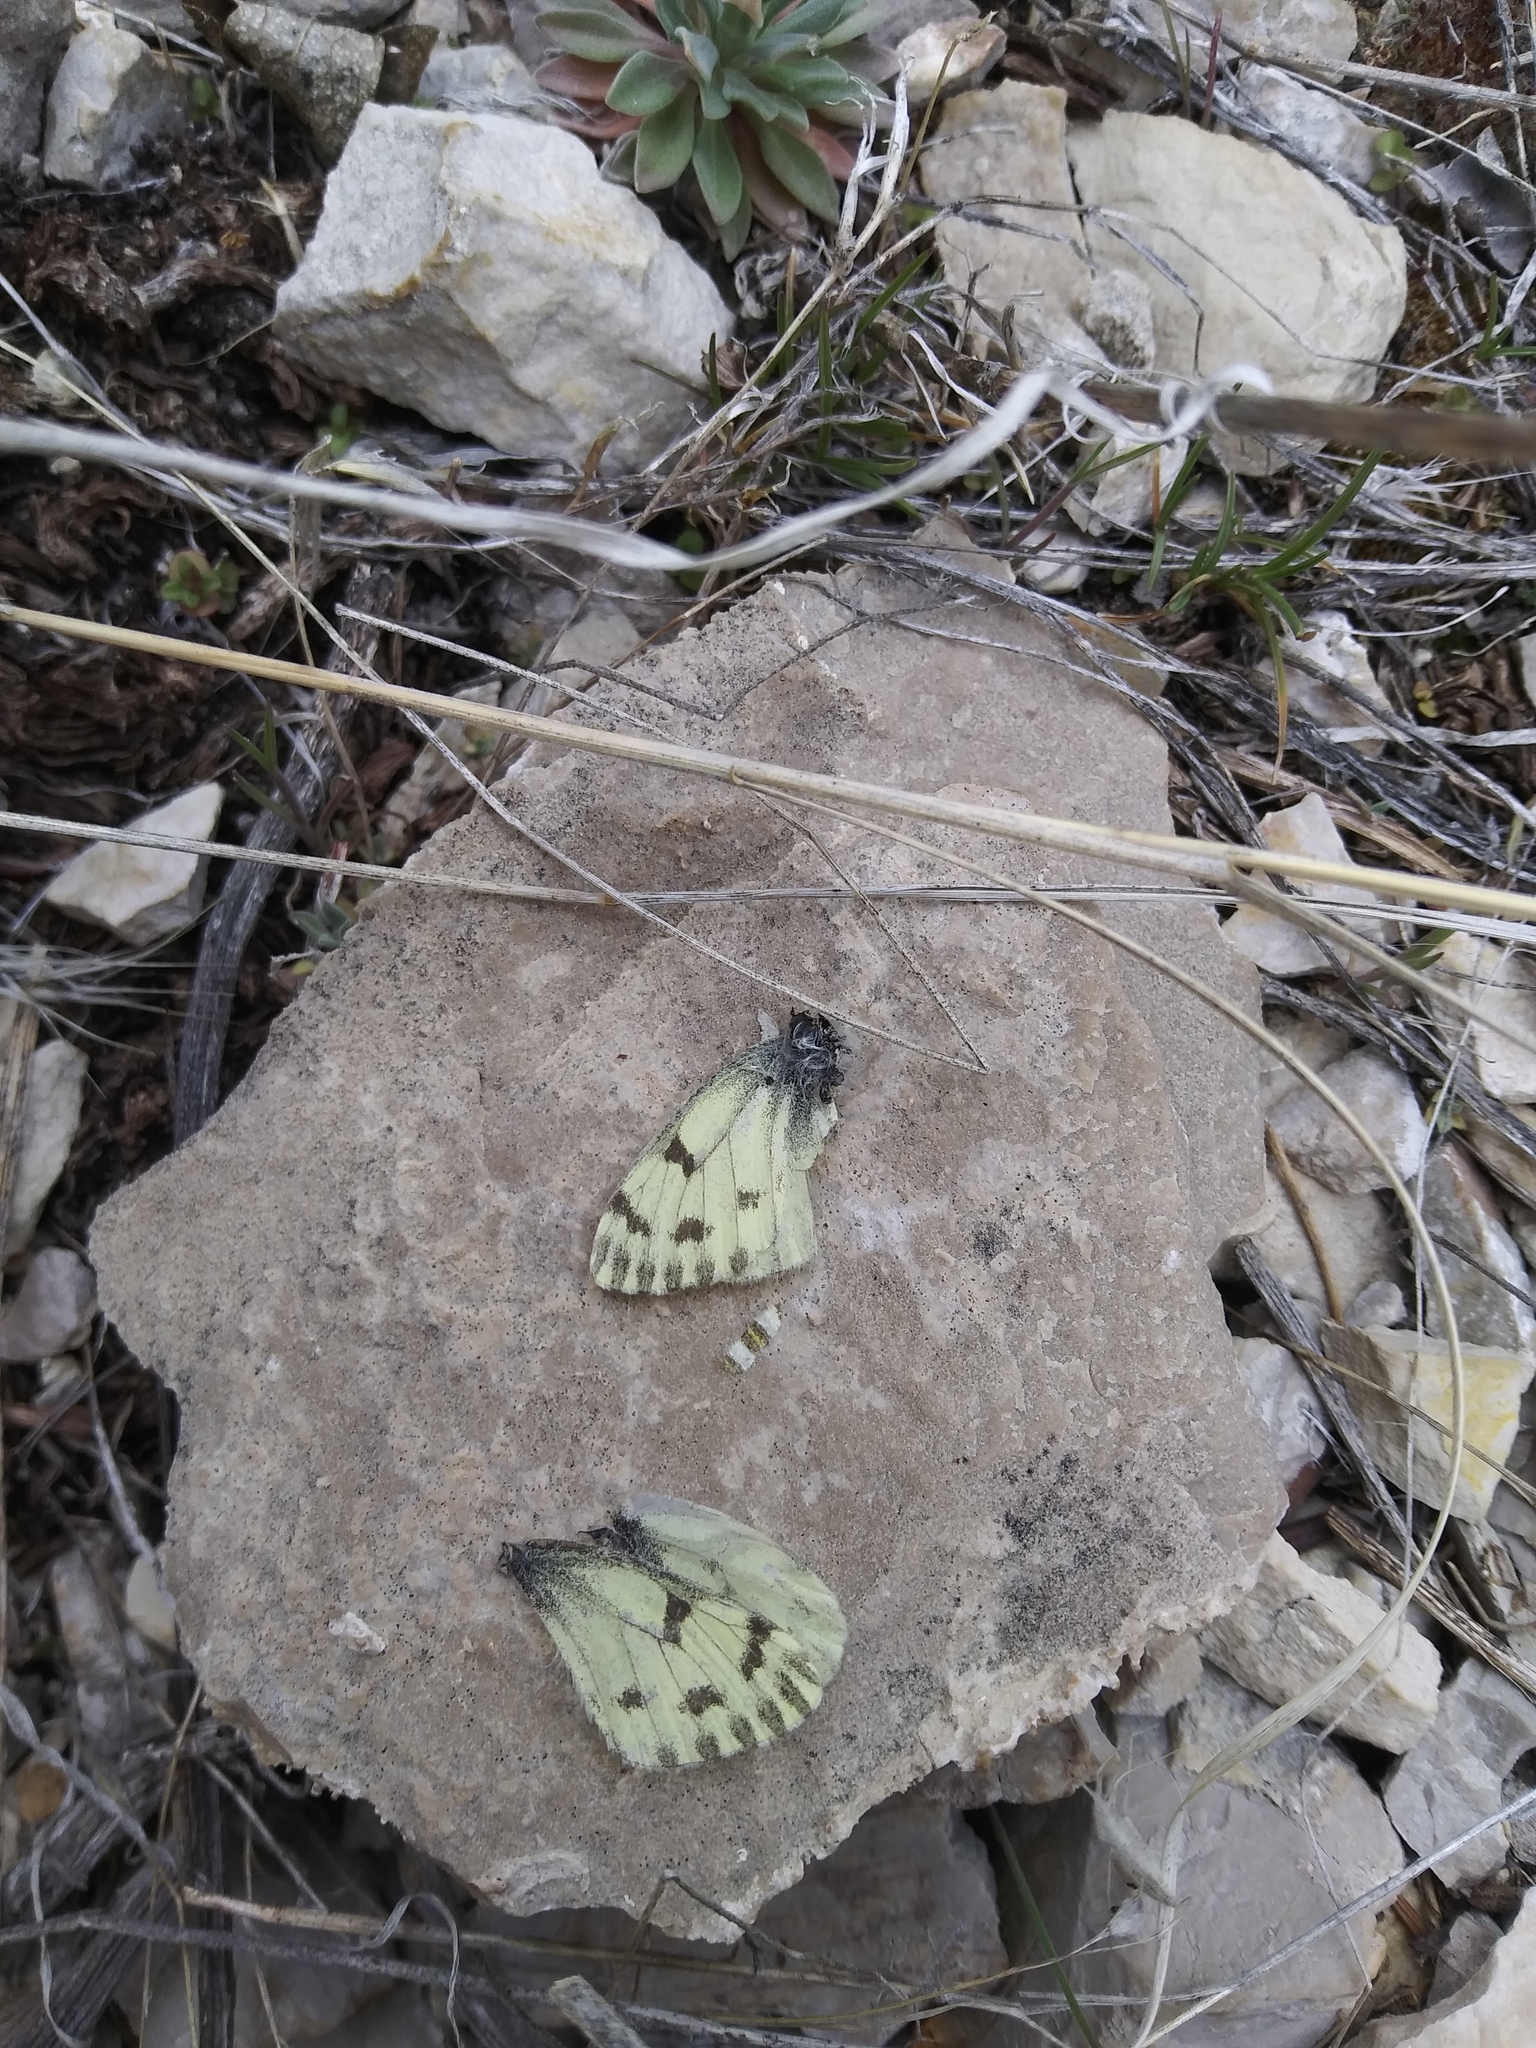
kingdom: Animalia
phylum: Arthropoda
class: Insecta
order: Lepidoptera
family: Pieridae
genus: Pontia
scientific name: Pontia sisymbrii
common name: California white
